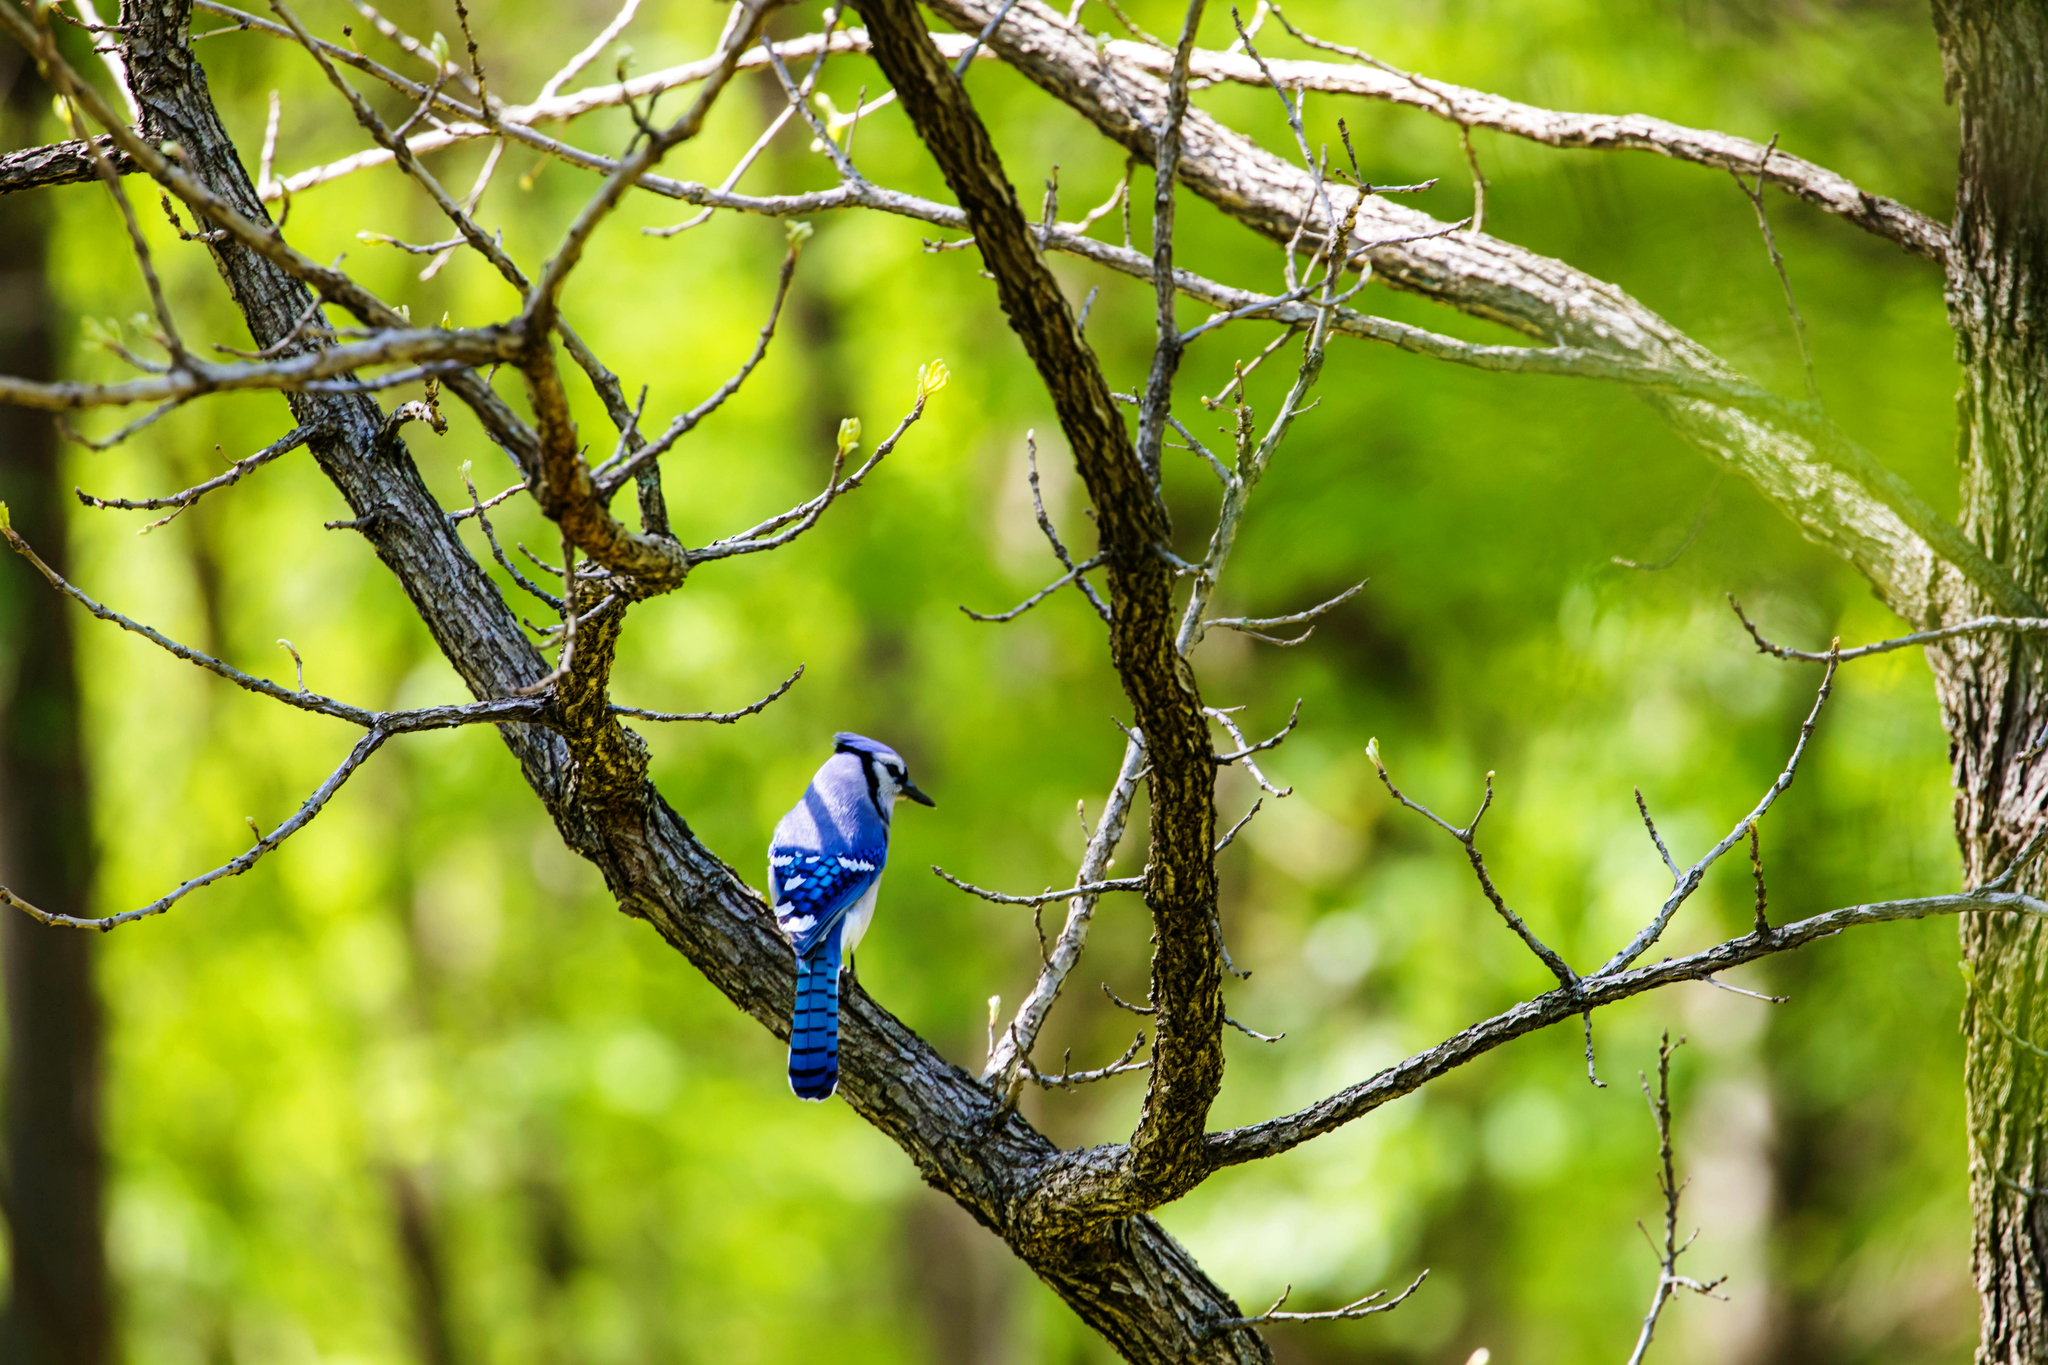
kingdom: Animalia
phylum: Chordata
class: Aves
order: Passeriformes
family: Corvidae
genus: Cyanocitta
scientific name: Cyanocitta cristata
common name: Blue jay
